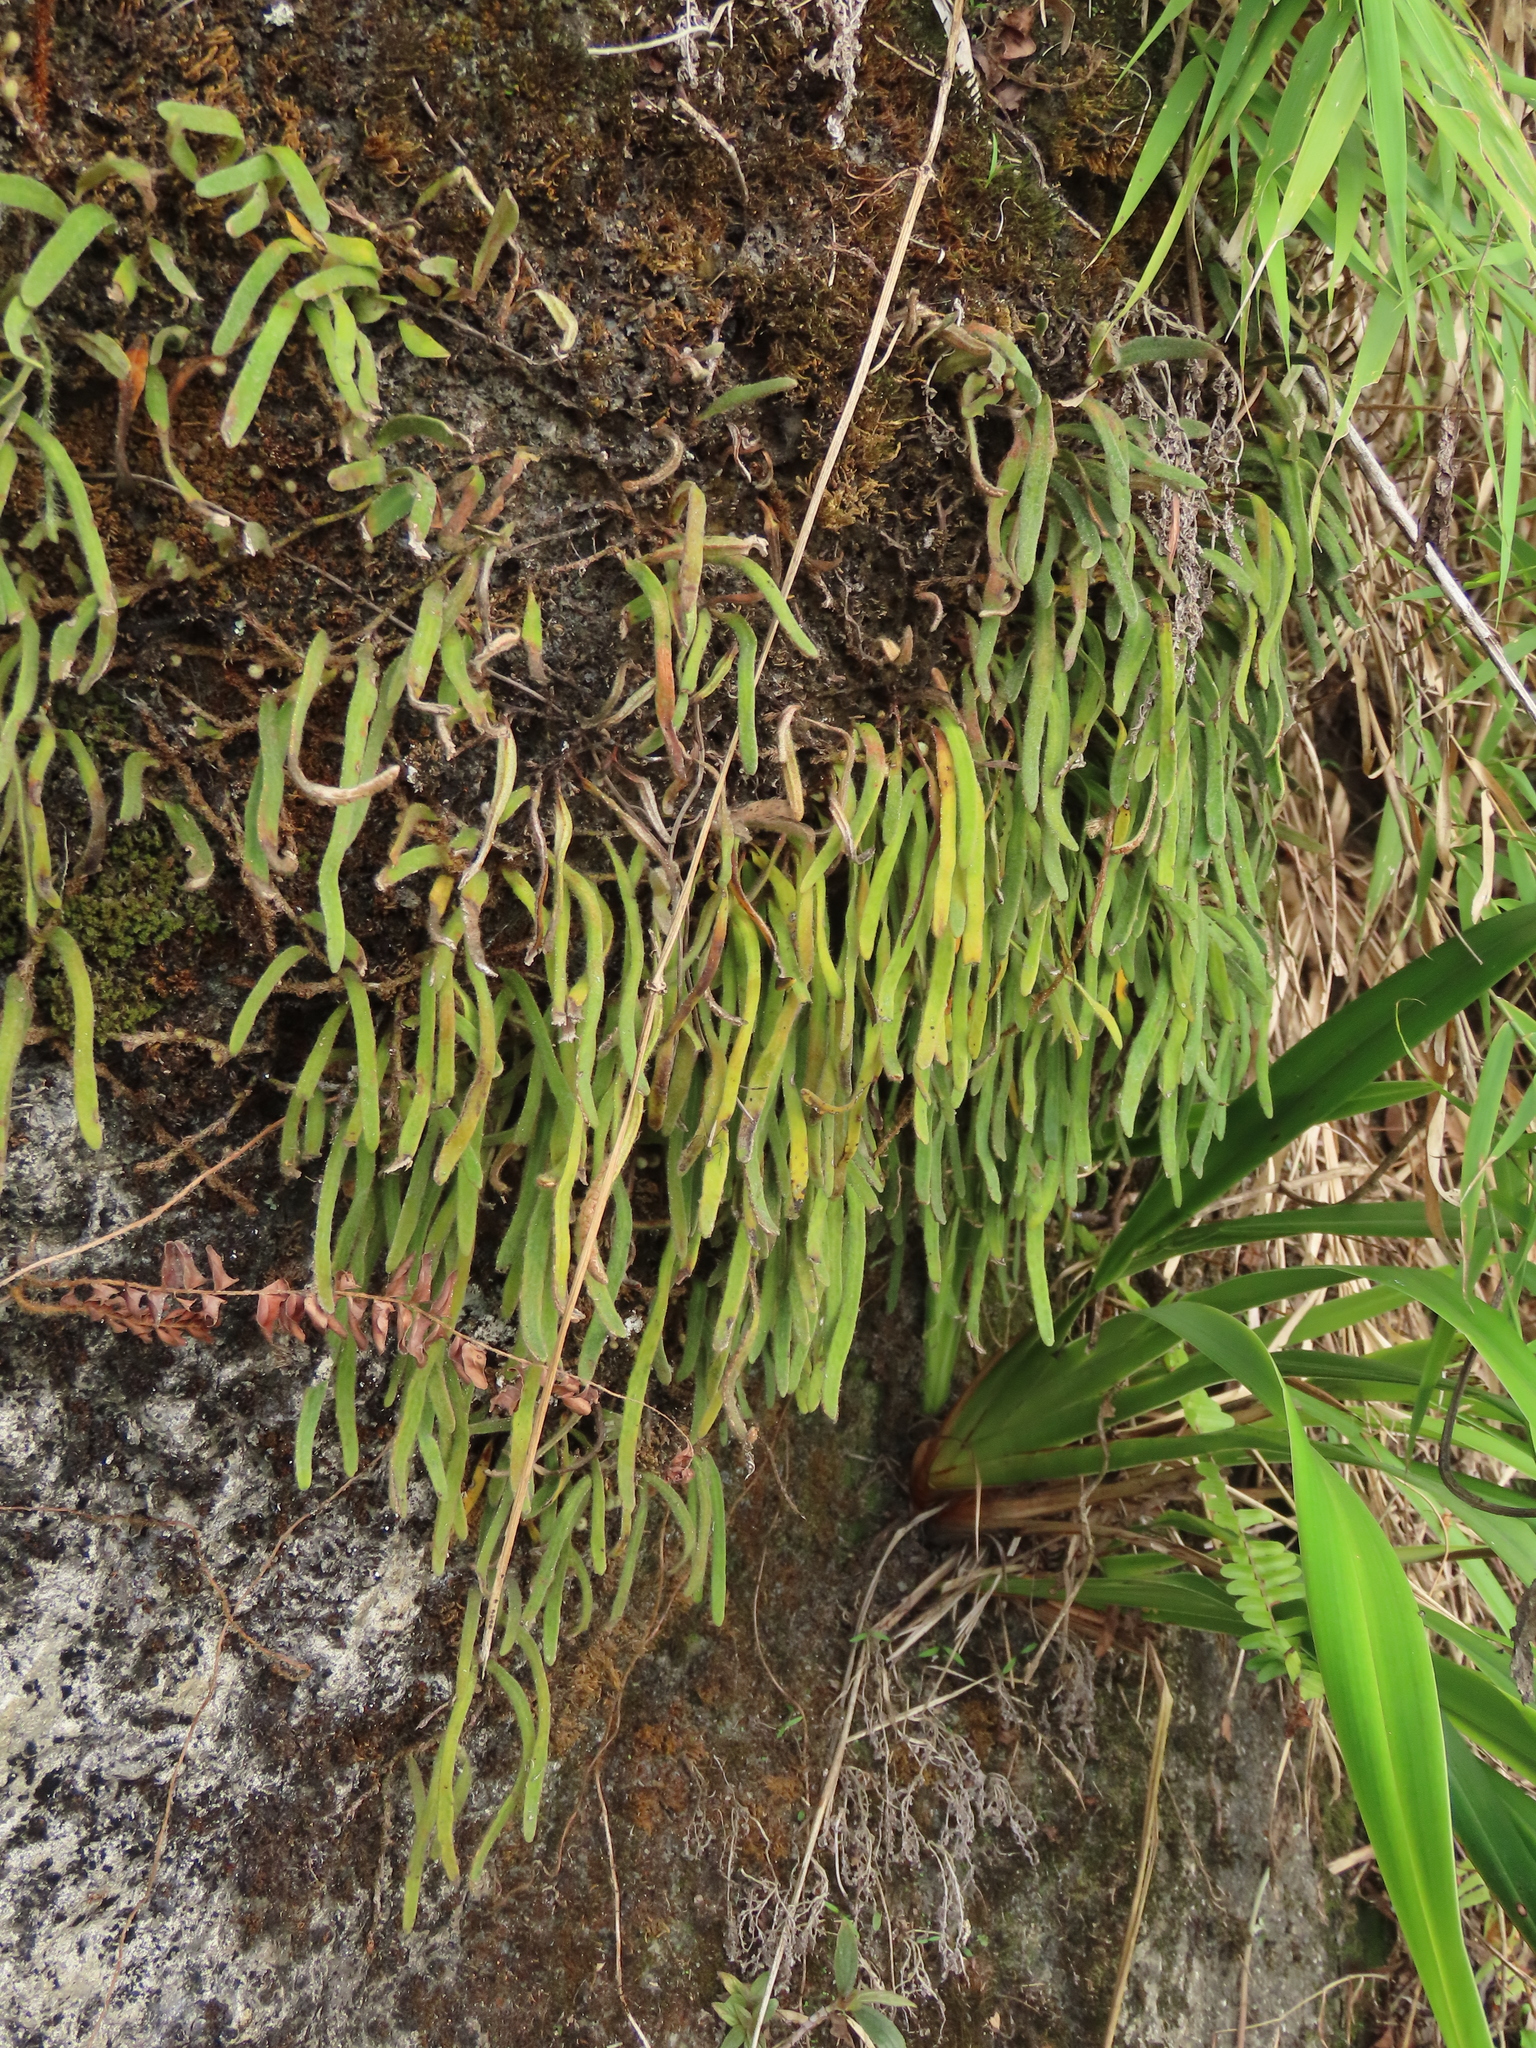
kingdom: Plantae
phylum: Tracheophyta
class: Polypodiopsida
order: Polypodiales
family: Polypodiaceae
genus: Pyrrosia
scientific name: Pyrrosia linearifolia
